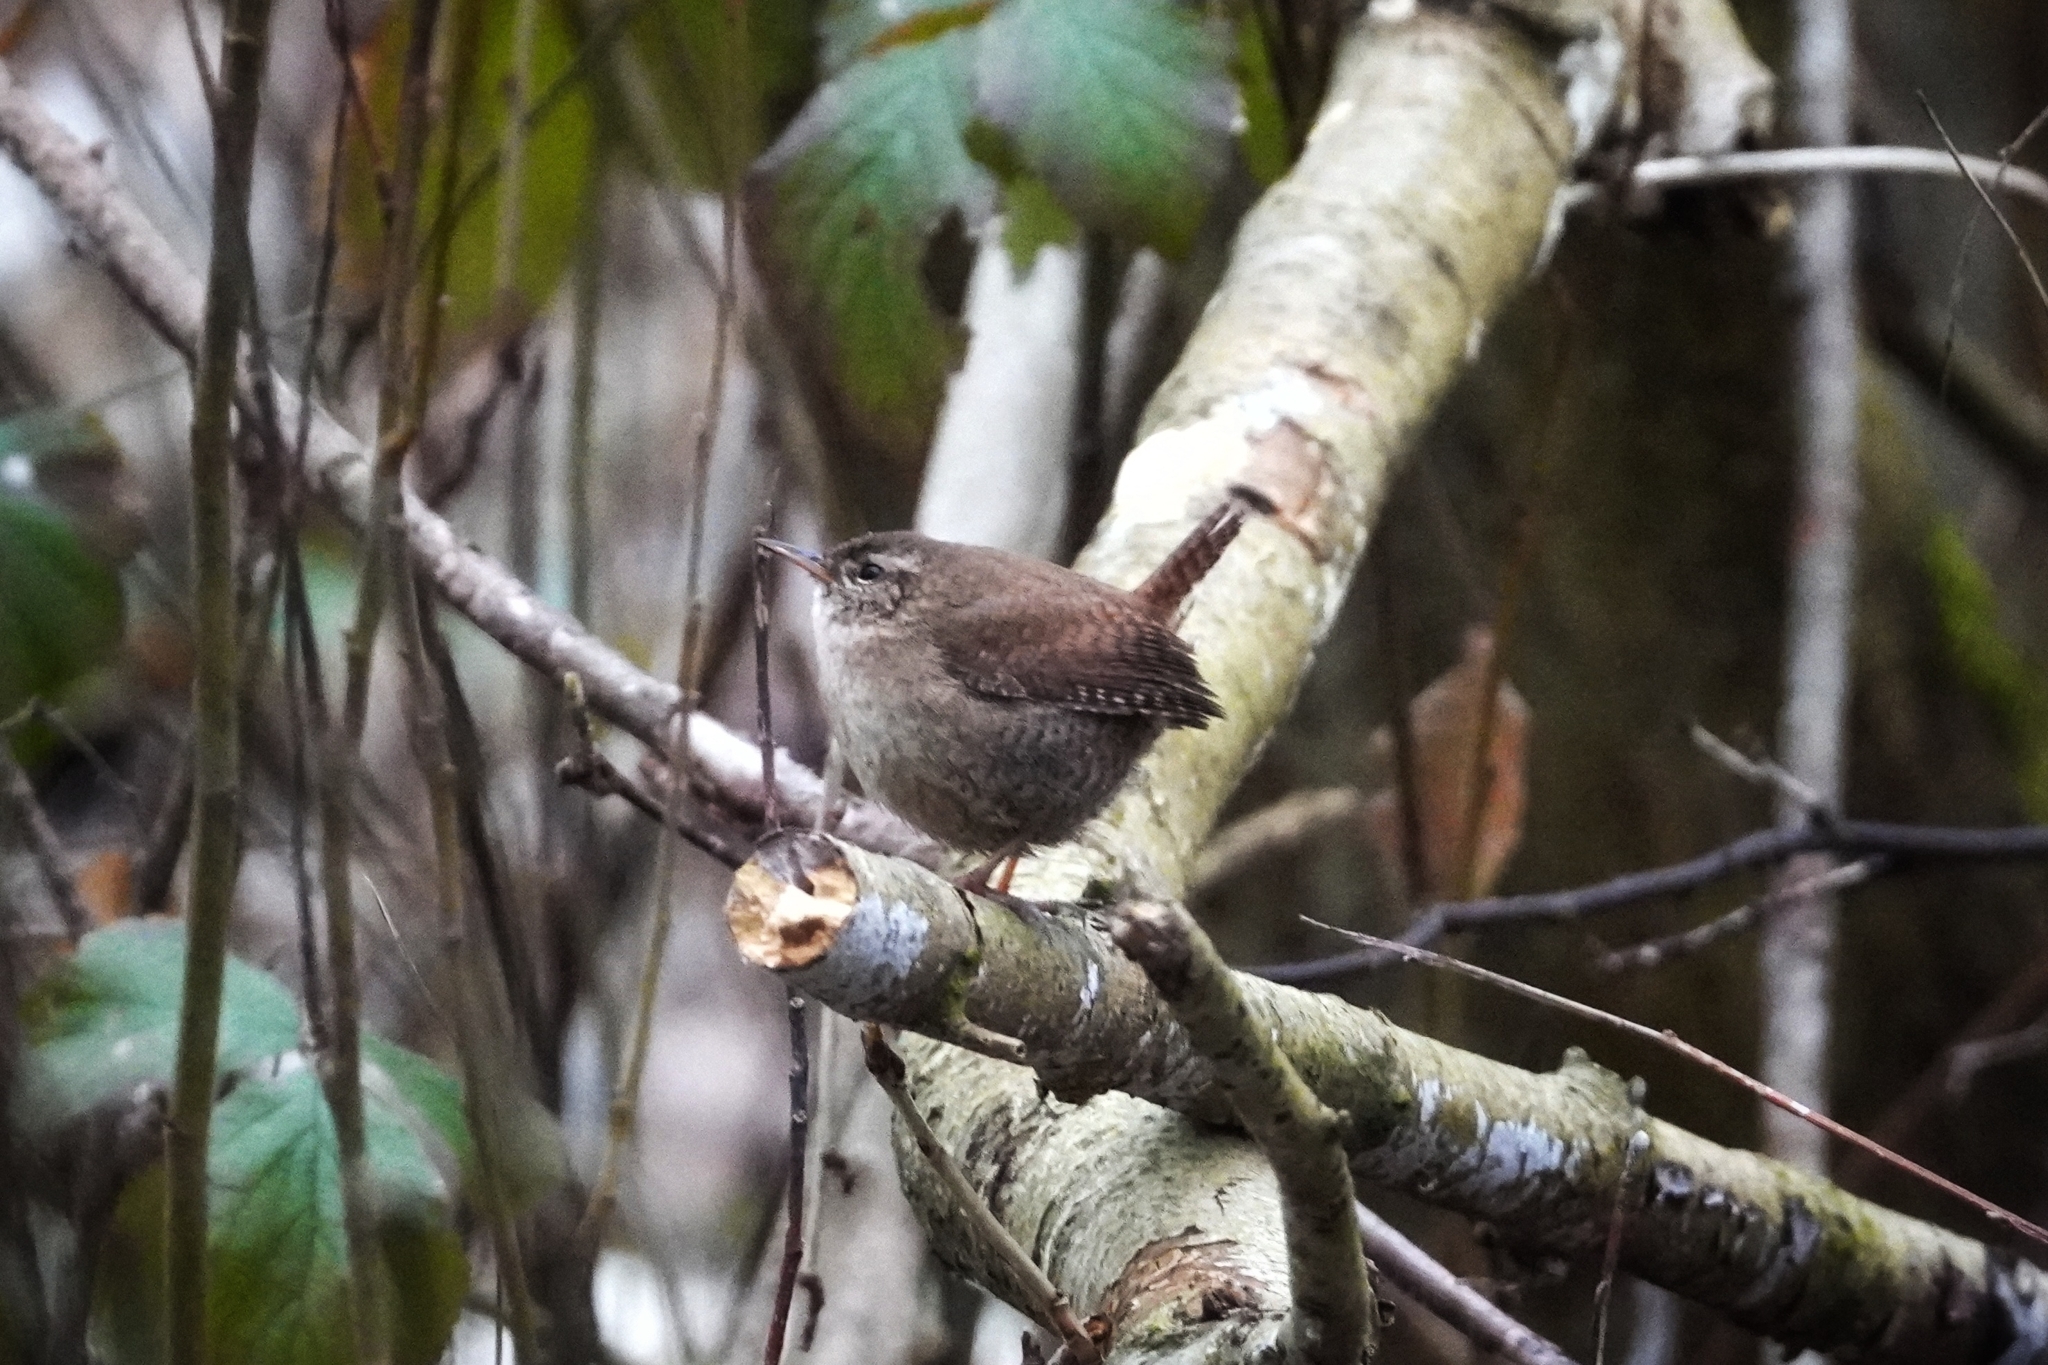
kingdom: Animalia
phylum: Chordata
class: Aves
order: Passeriformes
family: Troglodytidae
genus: Troglodytes
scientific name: Troglodytes troglodytes
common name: Eurasian wren
